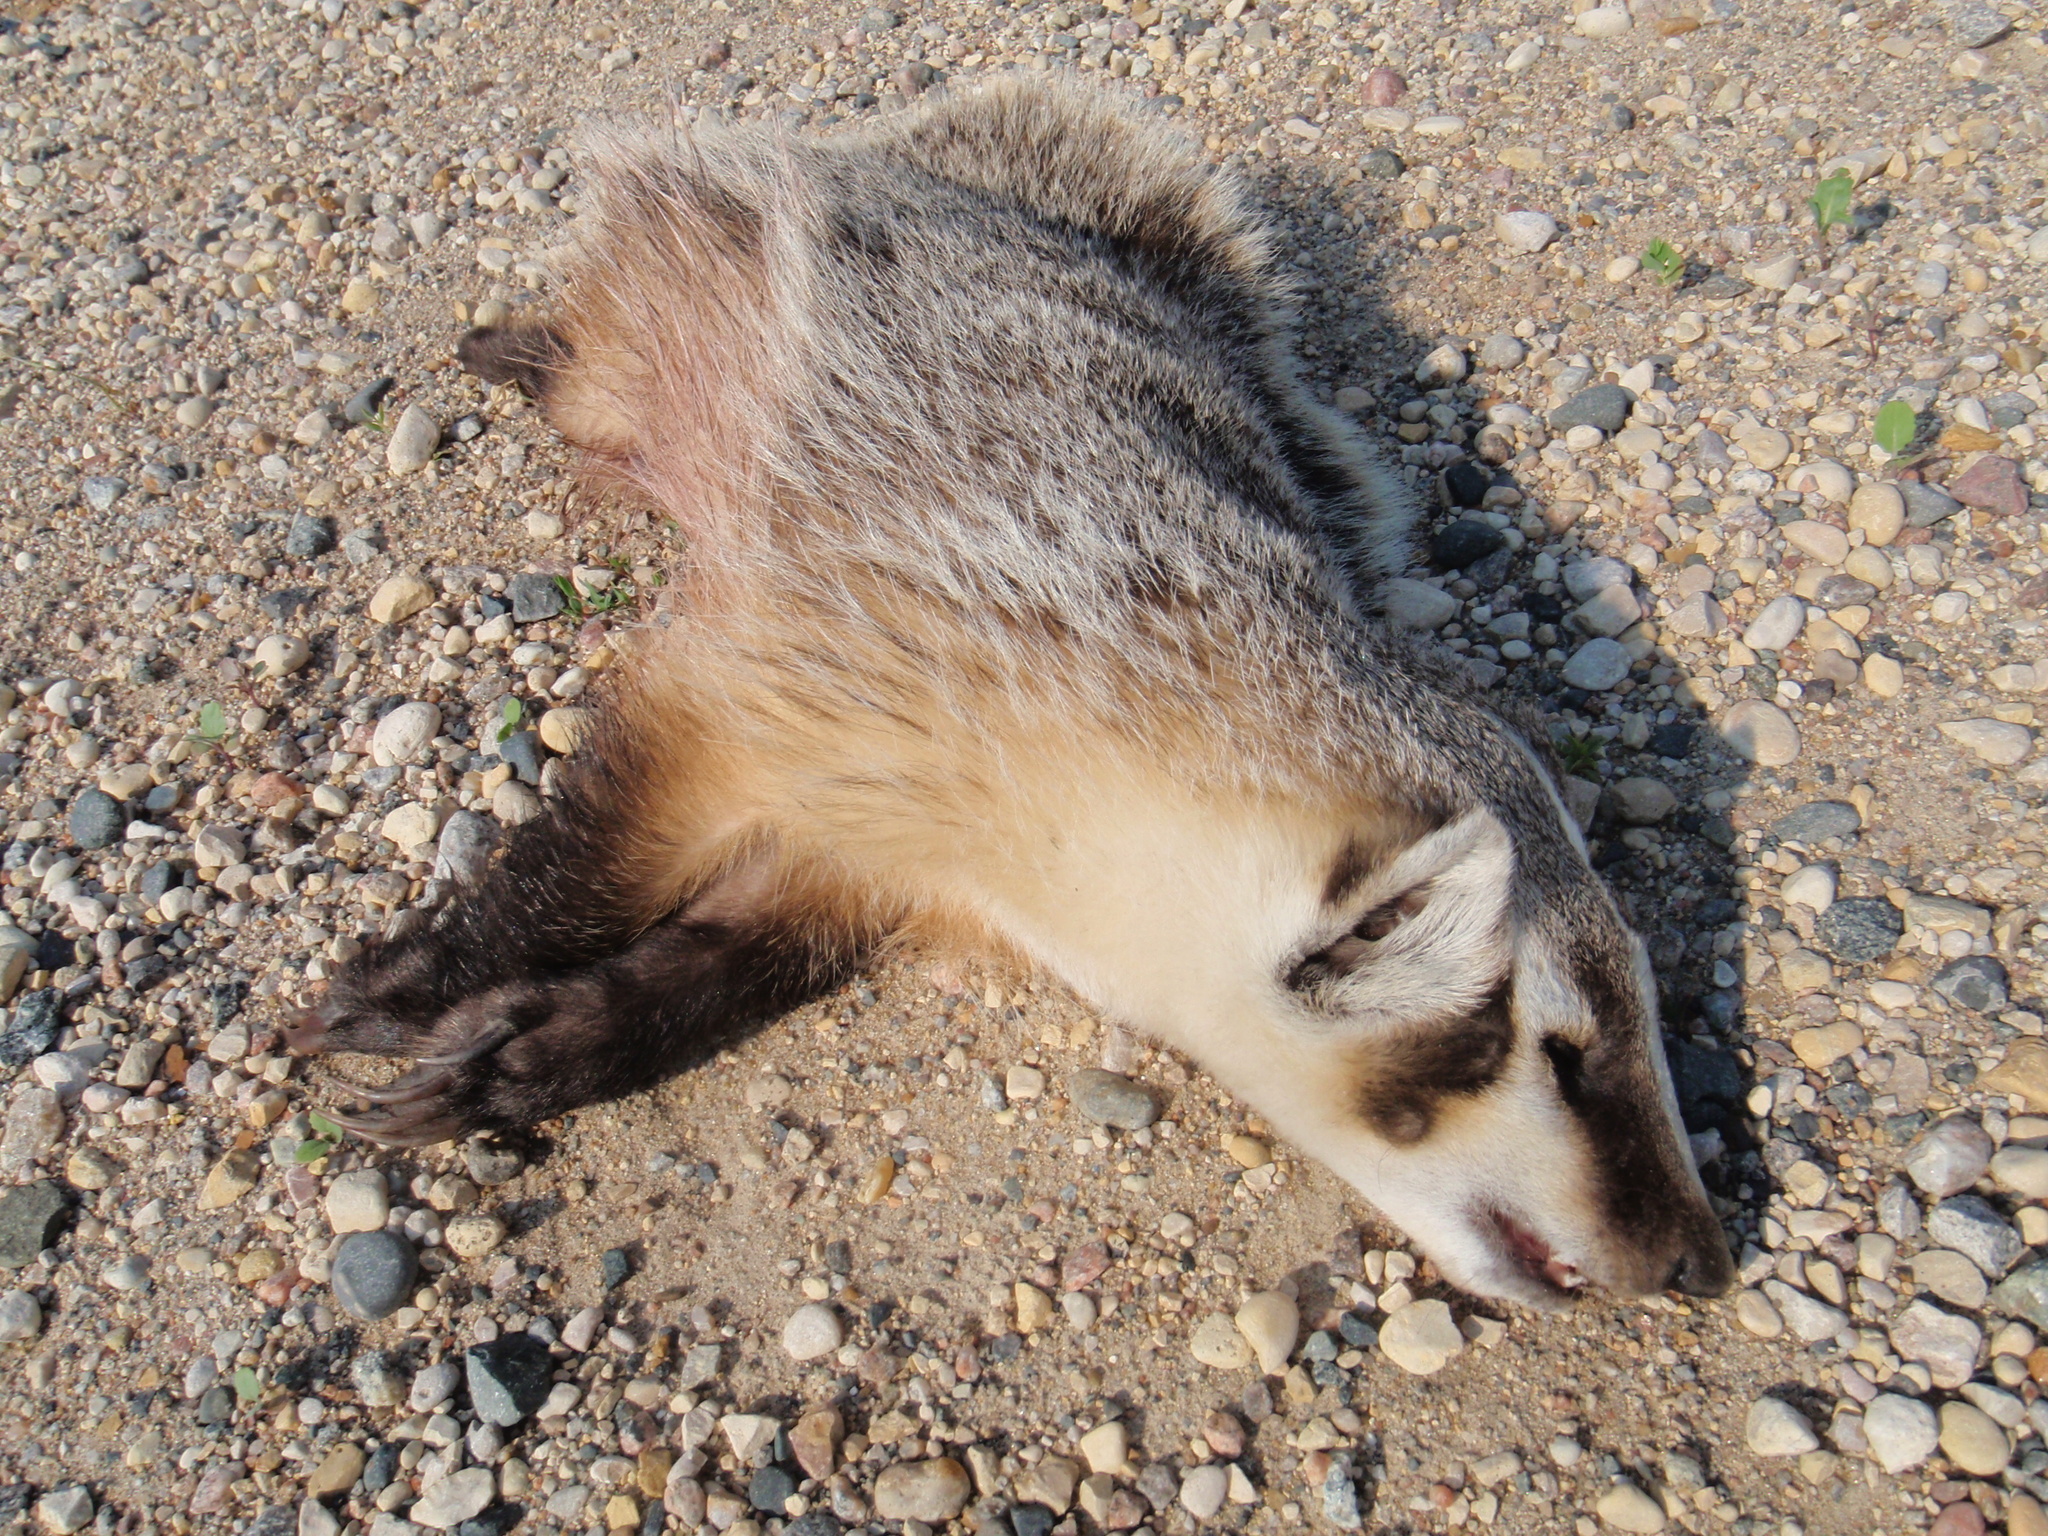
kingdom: Animalia
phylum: Chordata
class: Mammalia
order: Carnivora
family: Mustelidae
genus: Taxidea
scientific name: Taxidea taxus
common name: American badger
